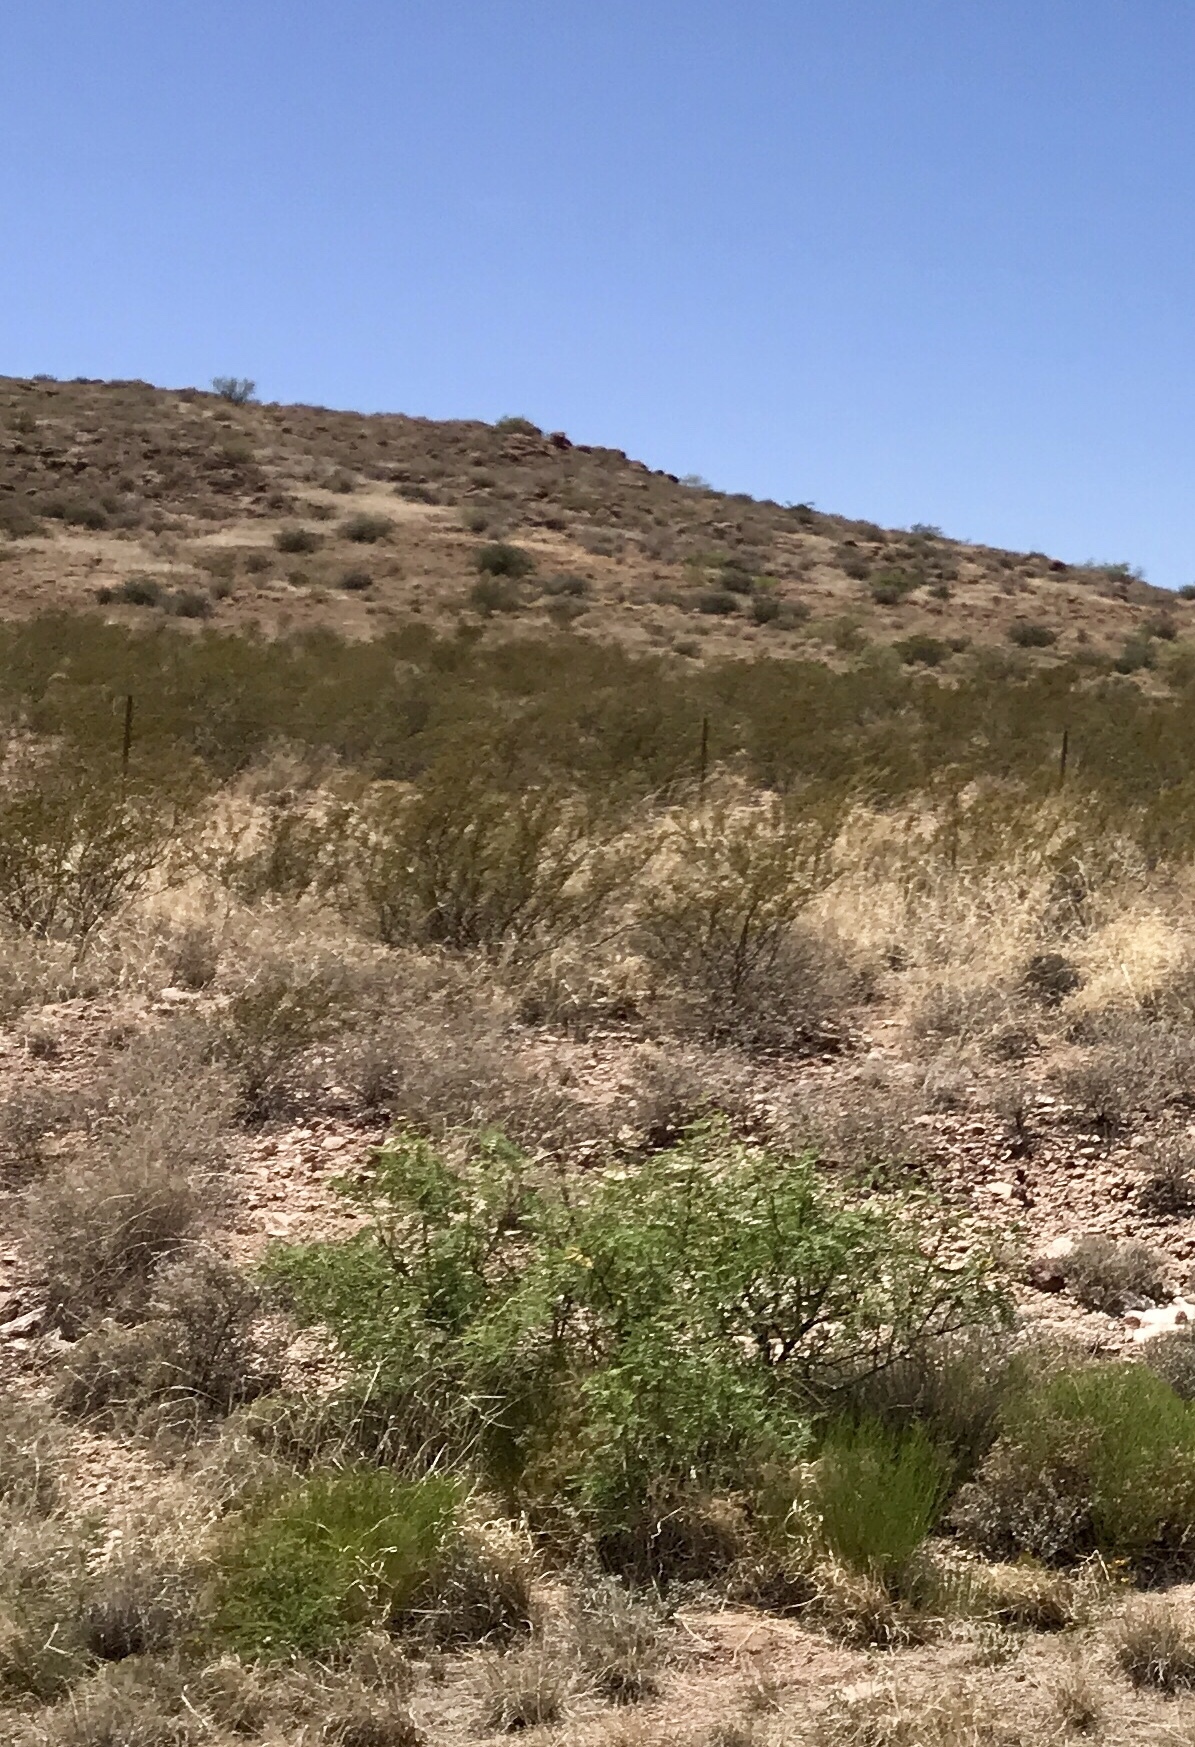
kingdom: Plantae
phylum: Tracheophyta
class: Magnoliopsida
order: Zygophyllales
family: Zygophyllaceae
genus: Larrea
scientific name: Larrea tridentata
